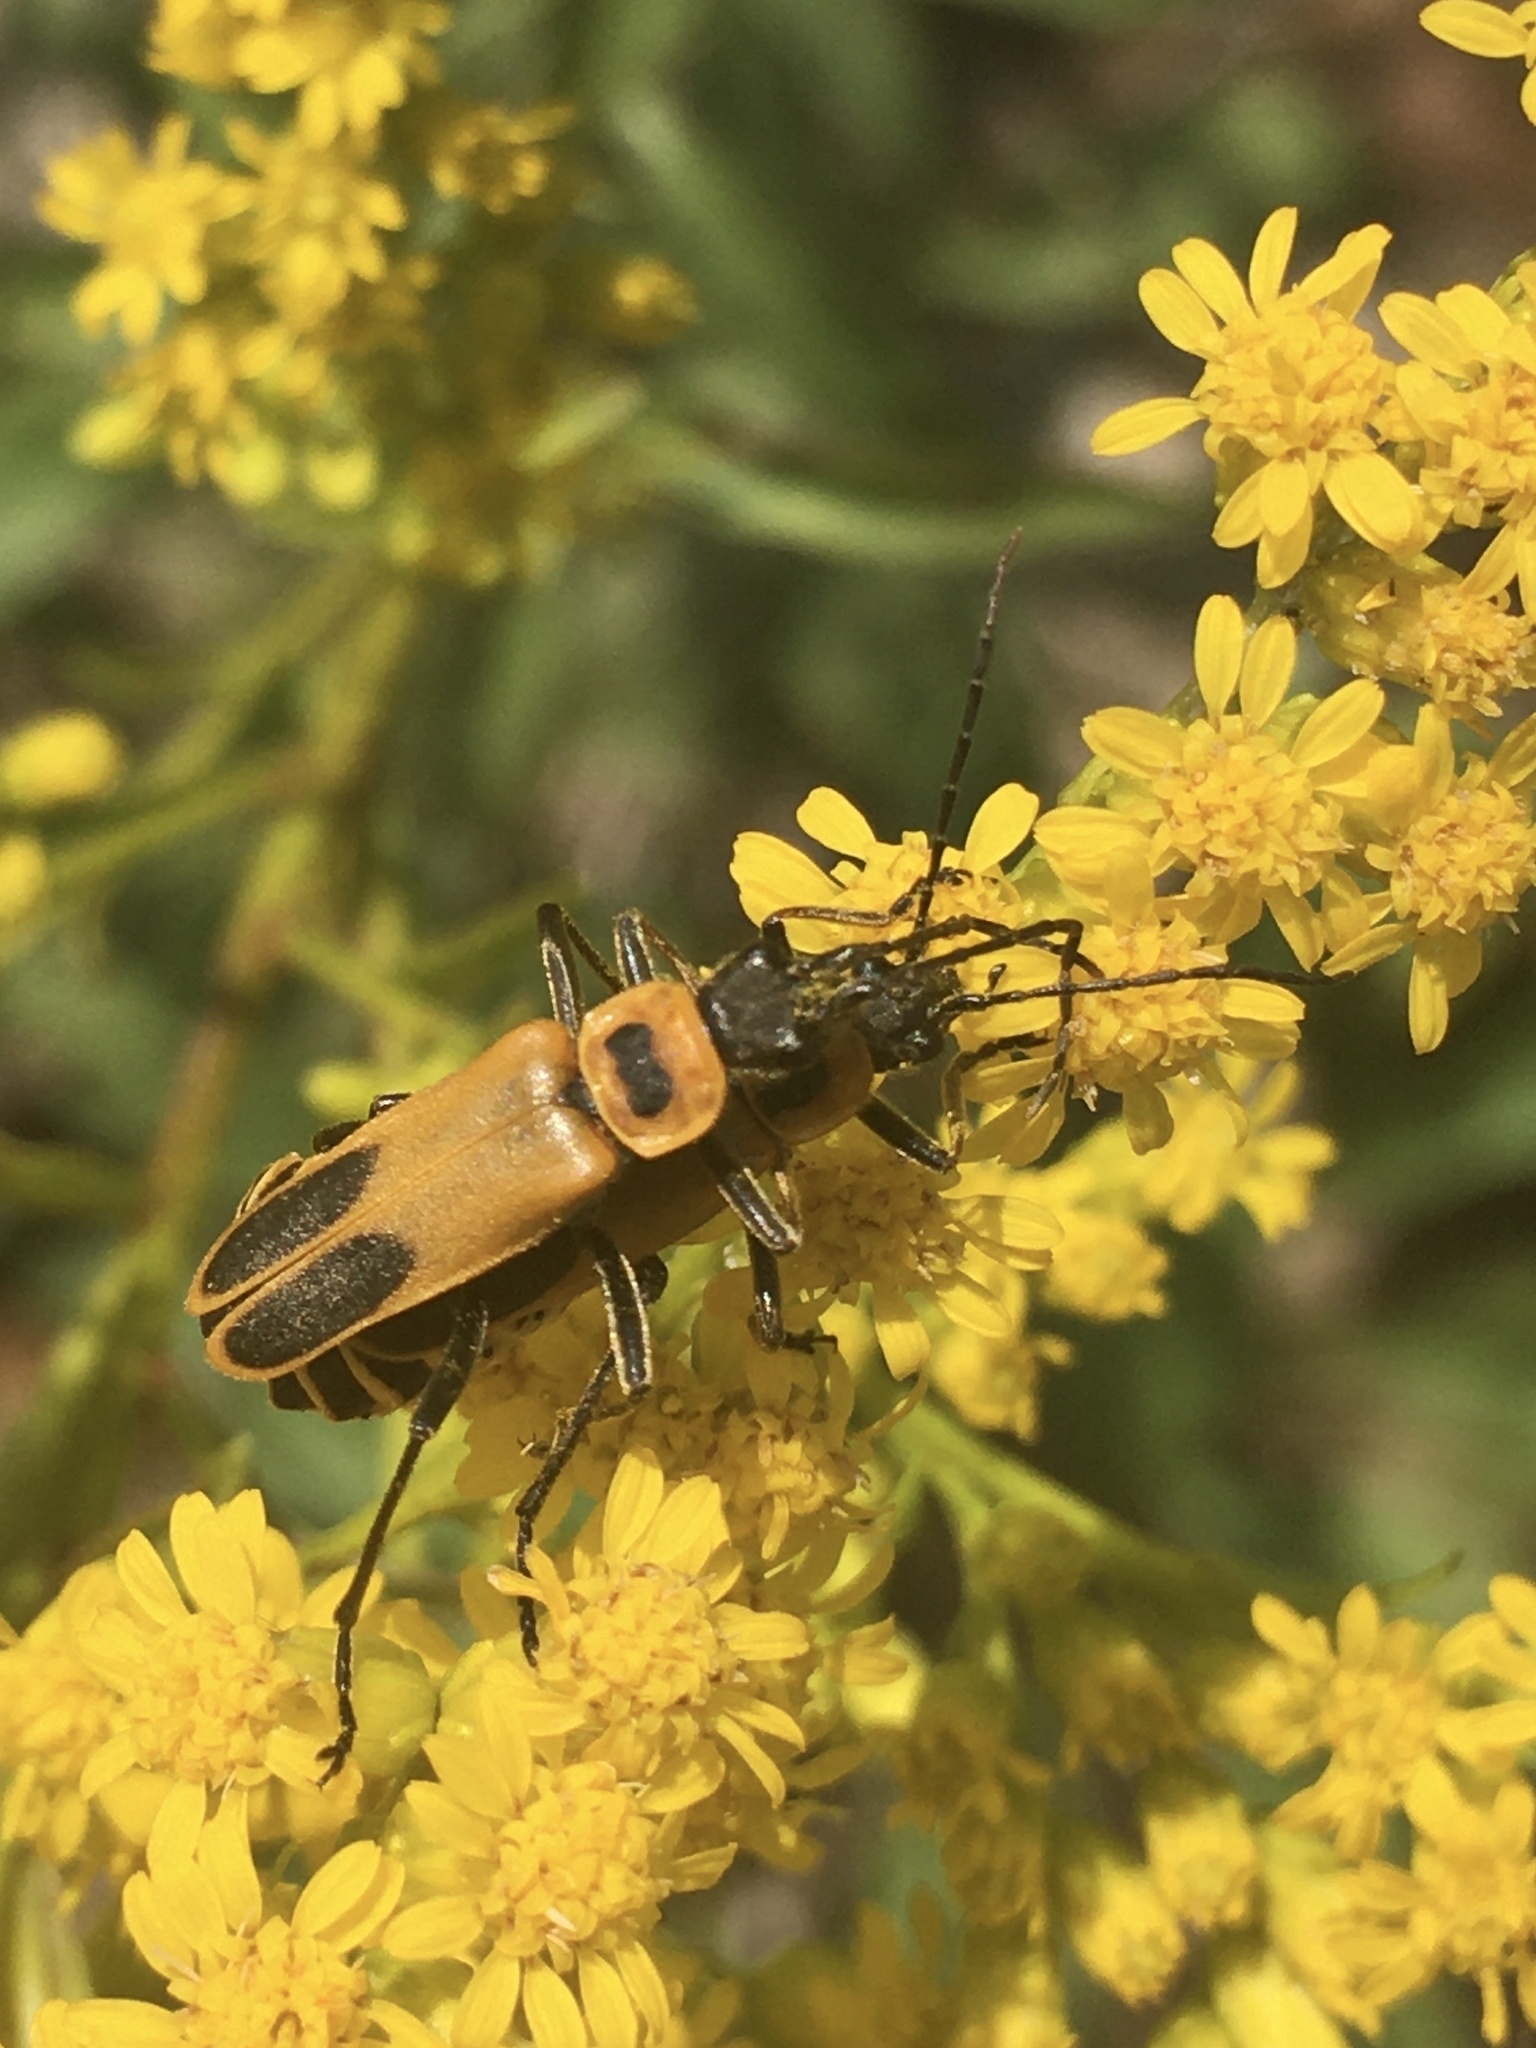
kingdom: Animalia
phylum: Arthropoda
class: Insecta
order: Coleoptera
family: Cantharidae
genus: Chauliognathus
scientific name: Chauliognathus pensylvanicus
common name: Goldenrod soldier beetle
